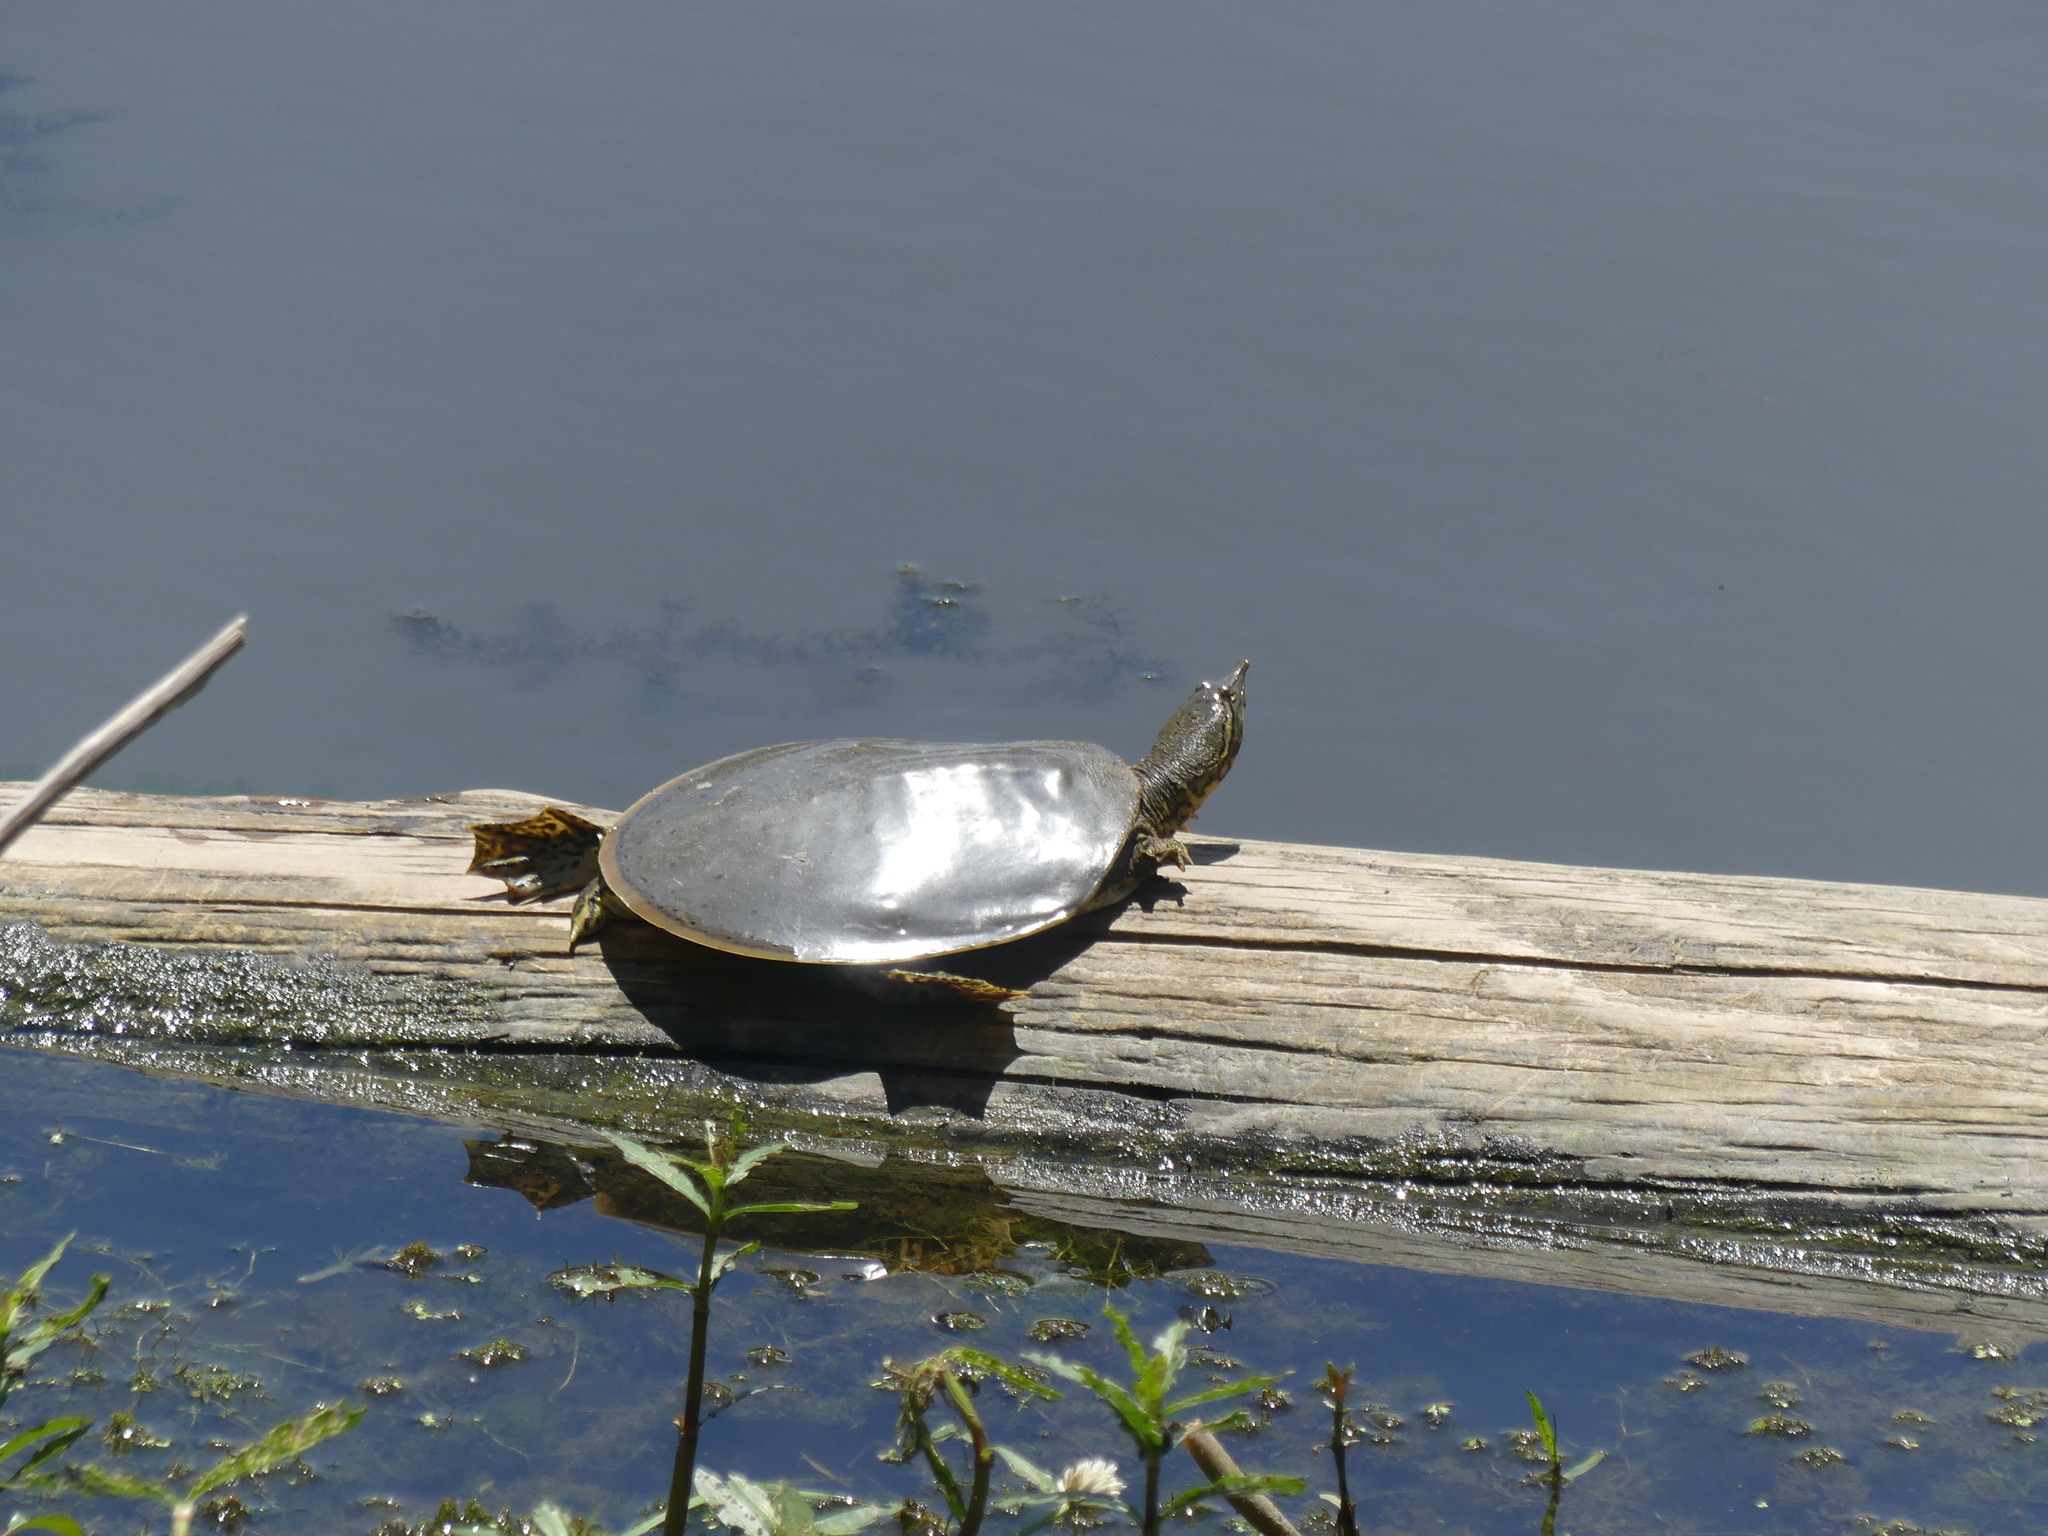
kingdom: Animalia
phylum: Chordata
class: Testudines
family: Trionychidae
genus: Apalone
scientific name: Apalone spinifera
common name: Spiny softshell turtle
